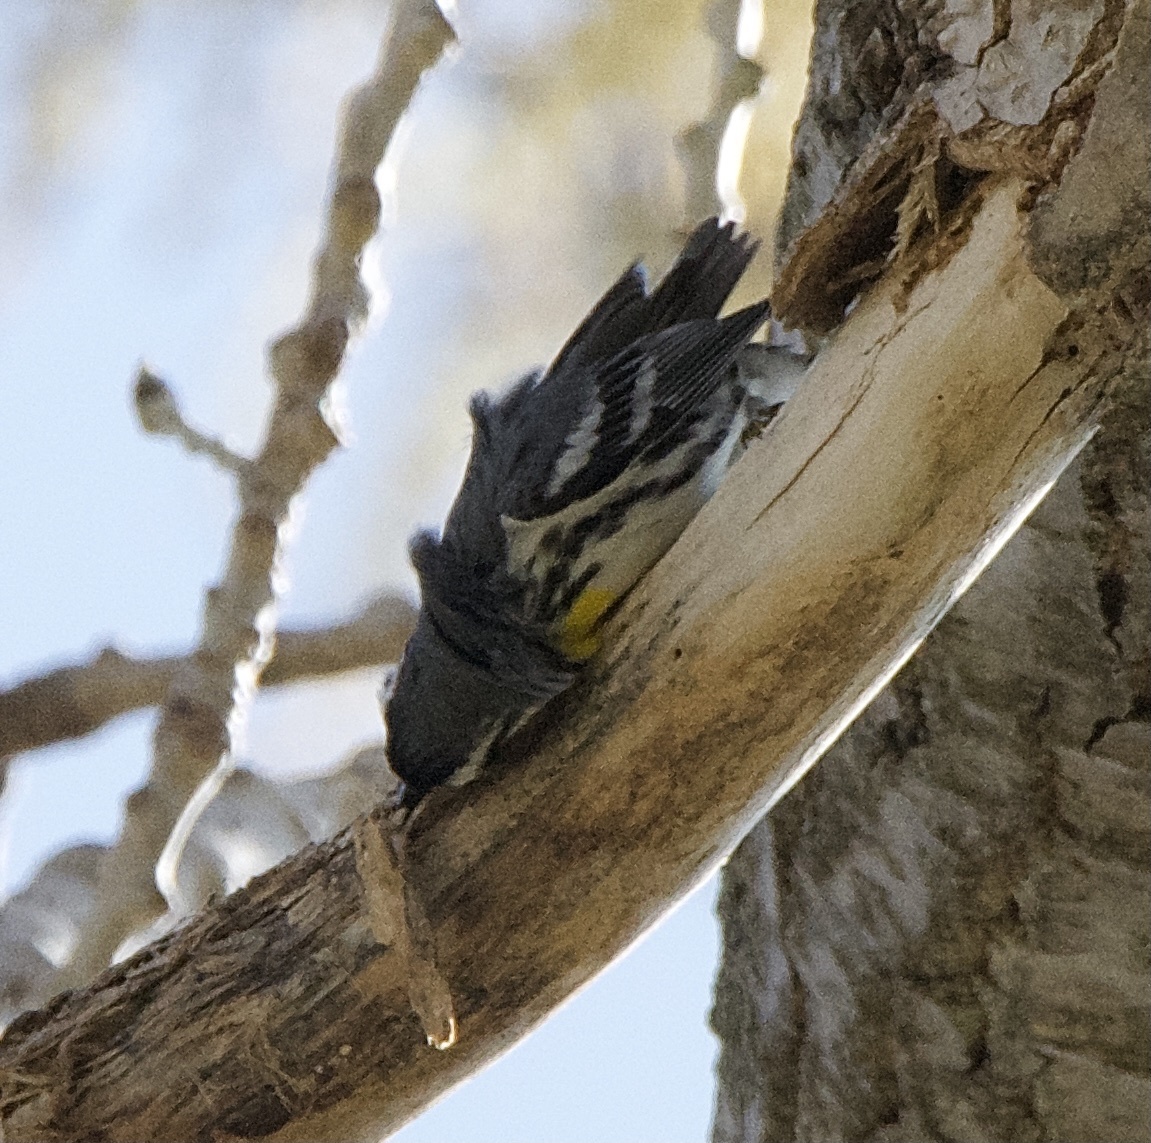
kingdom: Animalia
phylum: Chordata
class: Aves
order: Passeriformes
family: Parulidae
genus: Setophaga
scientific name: Setophaga dominica
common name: Yellow-throated warbler
